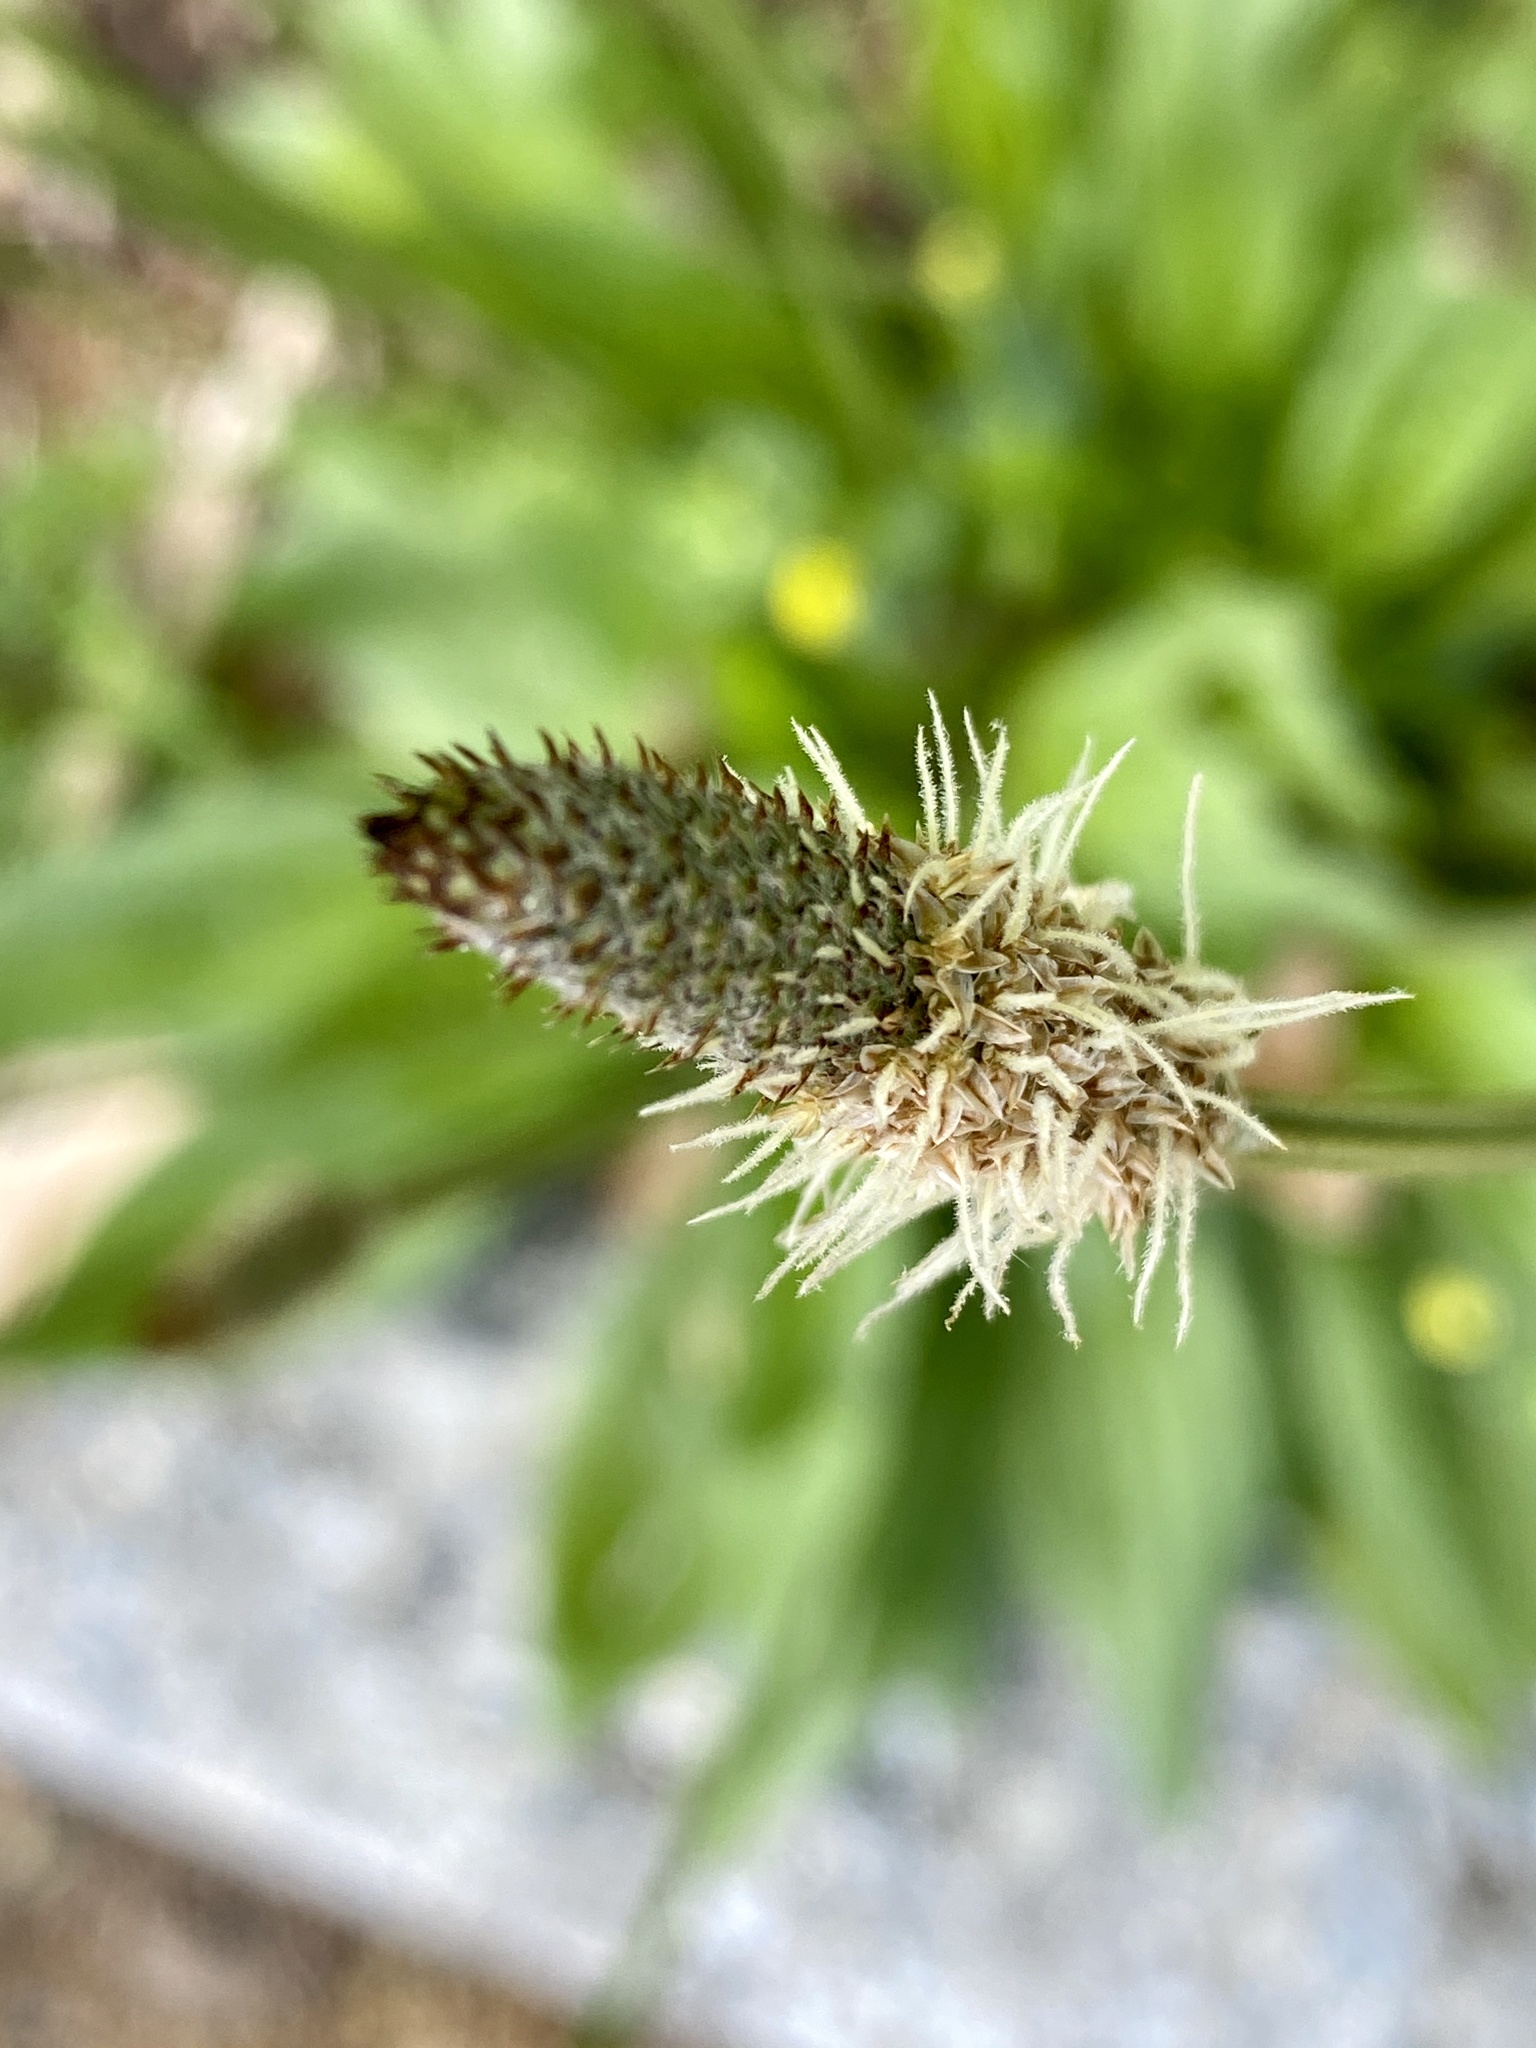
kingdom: Plantae
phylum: Tracheophyta
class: Magnoliopsida
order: Lamiales
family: Plantaginaceae
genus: Plantago
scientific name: Plantago lanceolata
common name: Ribwort plantain
